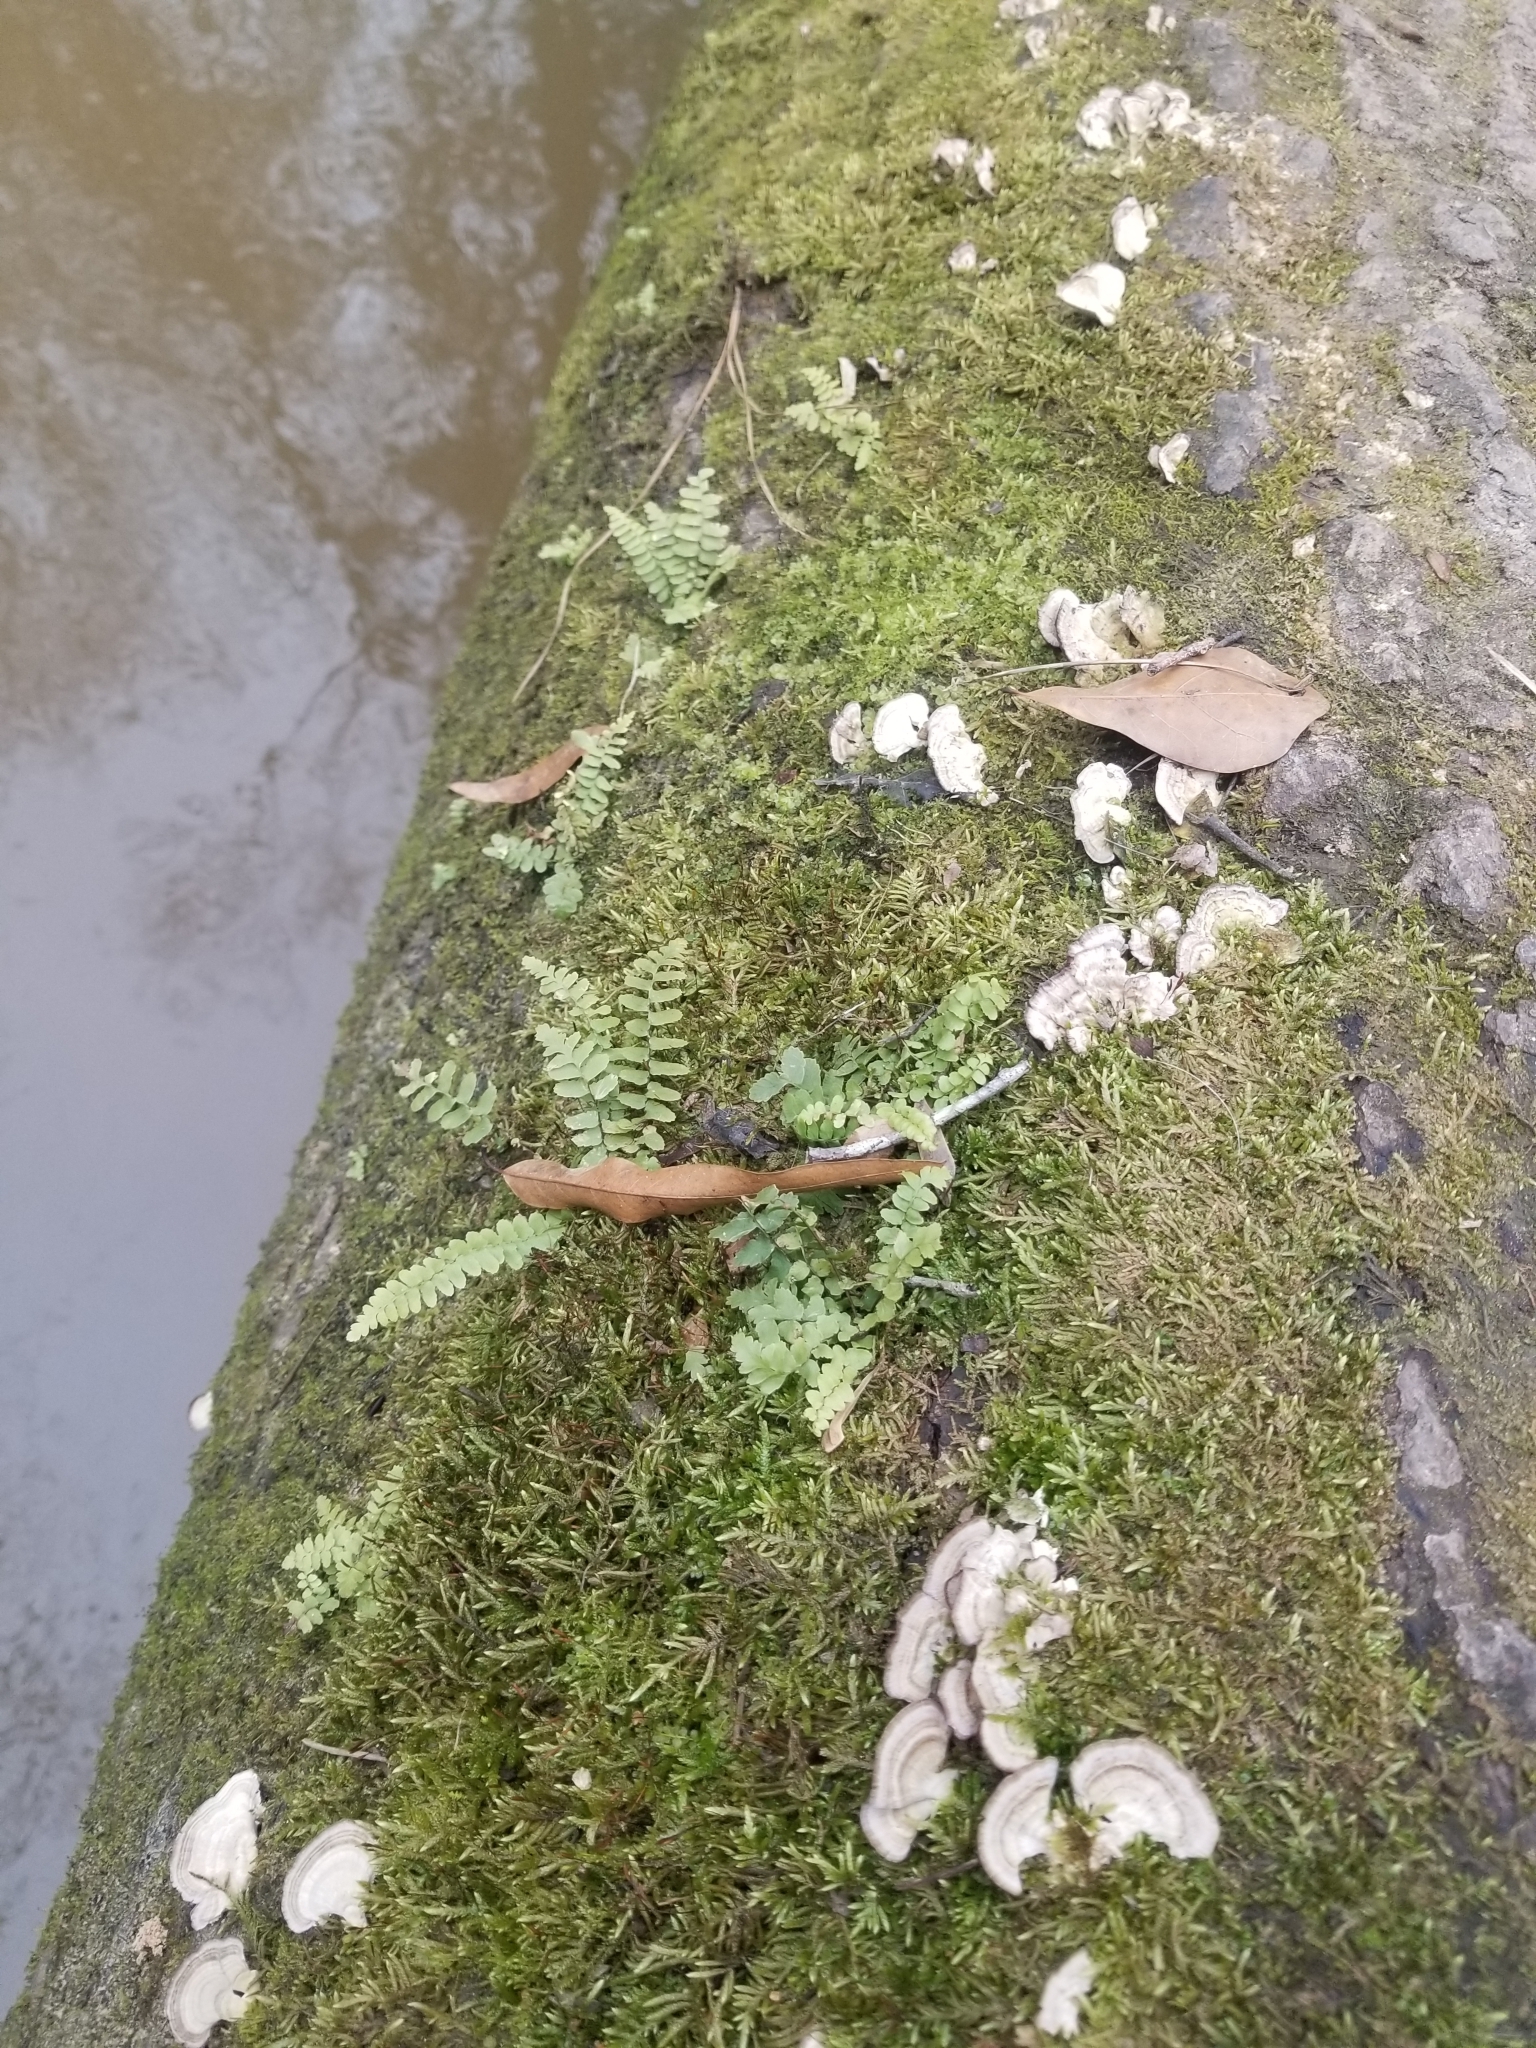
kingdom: Plantae
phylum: Tracheophyta
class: Polypodiopsida
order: Polypodiales
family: Aspleniaceae
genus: Asplenium
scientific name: Asplenium platyneuron
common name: Ebony spleenwort
